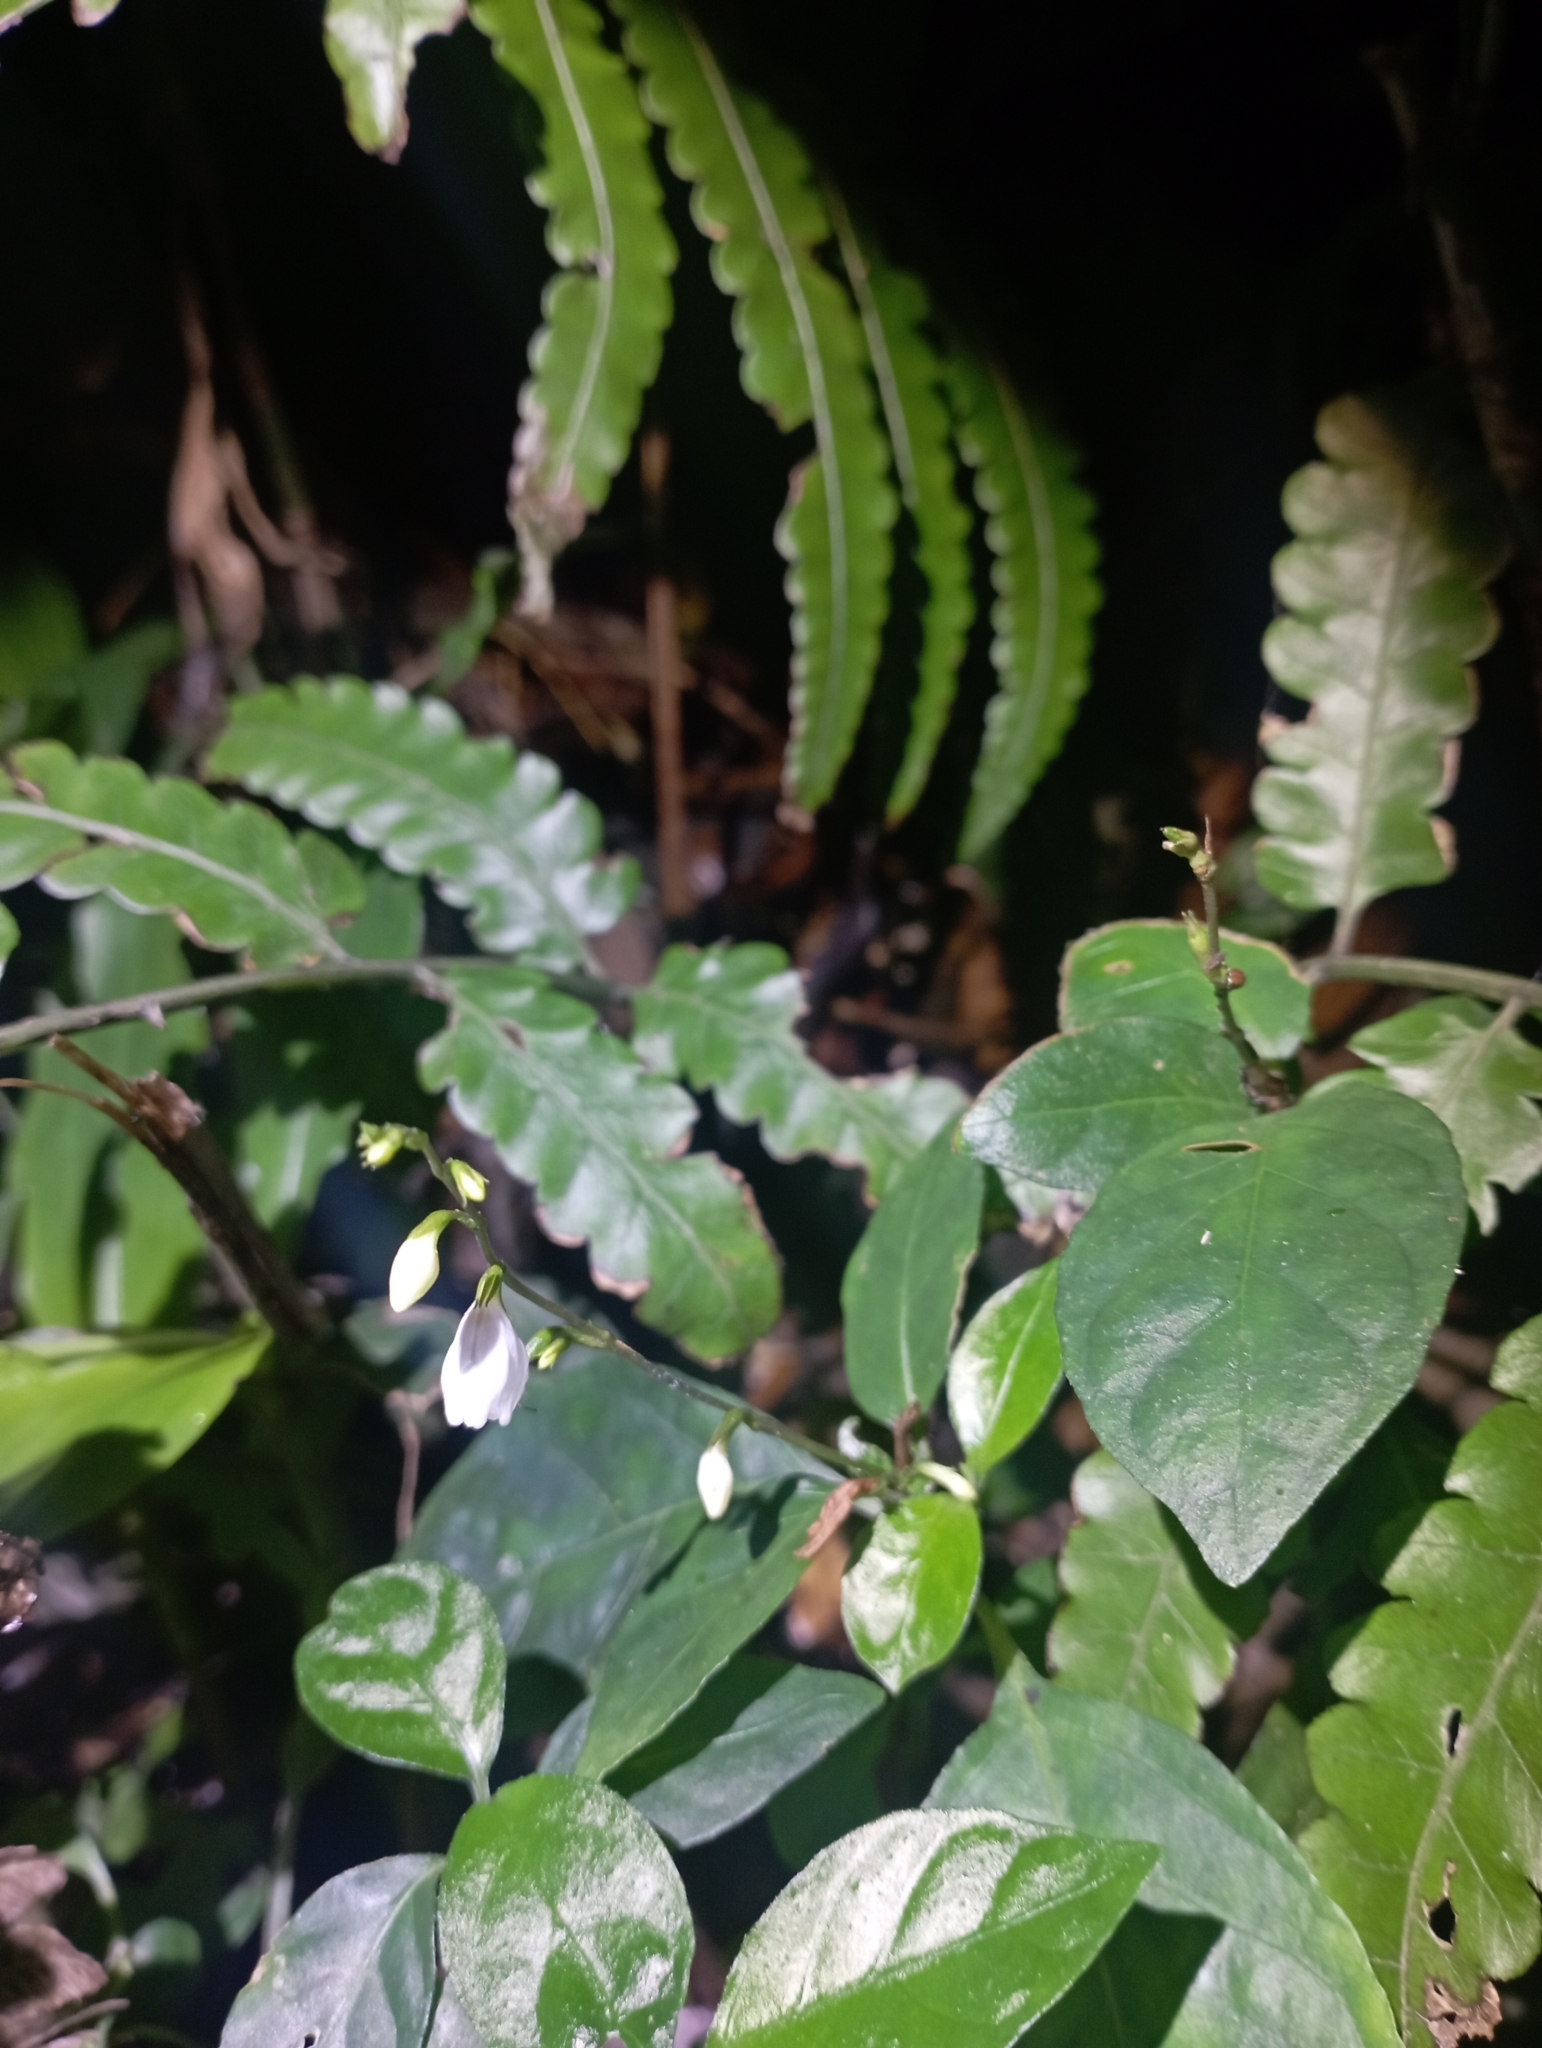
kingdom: Plantae
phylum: Tracheophyta
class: Magnoliopsida
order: Lamiales
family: Acanthaceae
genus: Codonacanthus
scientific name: Codonacanthus pauciflorus
